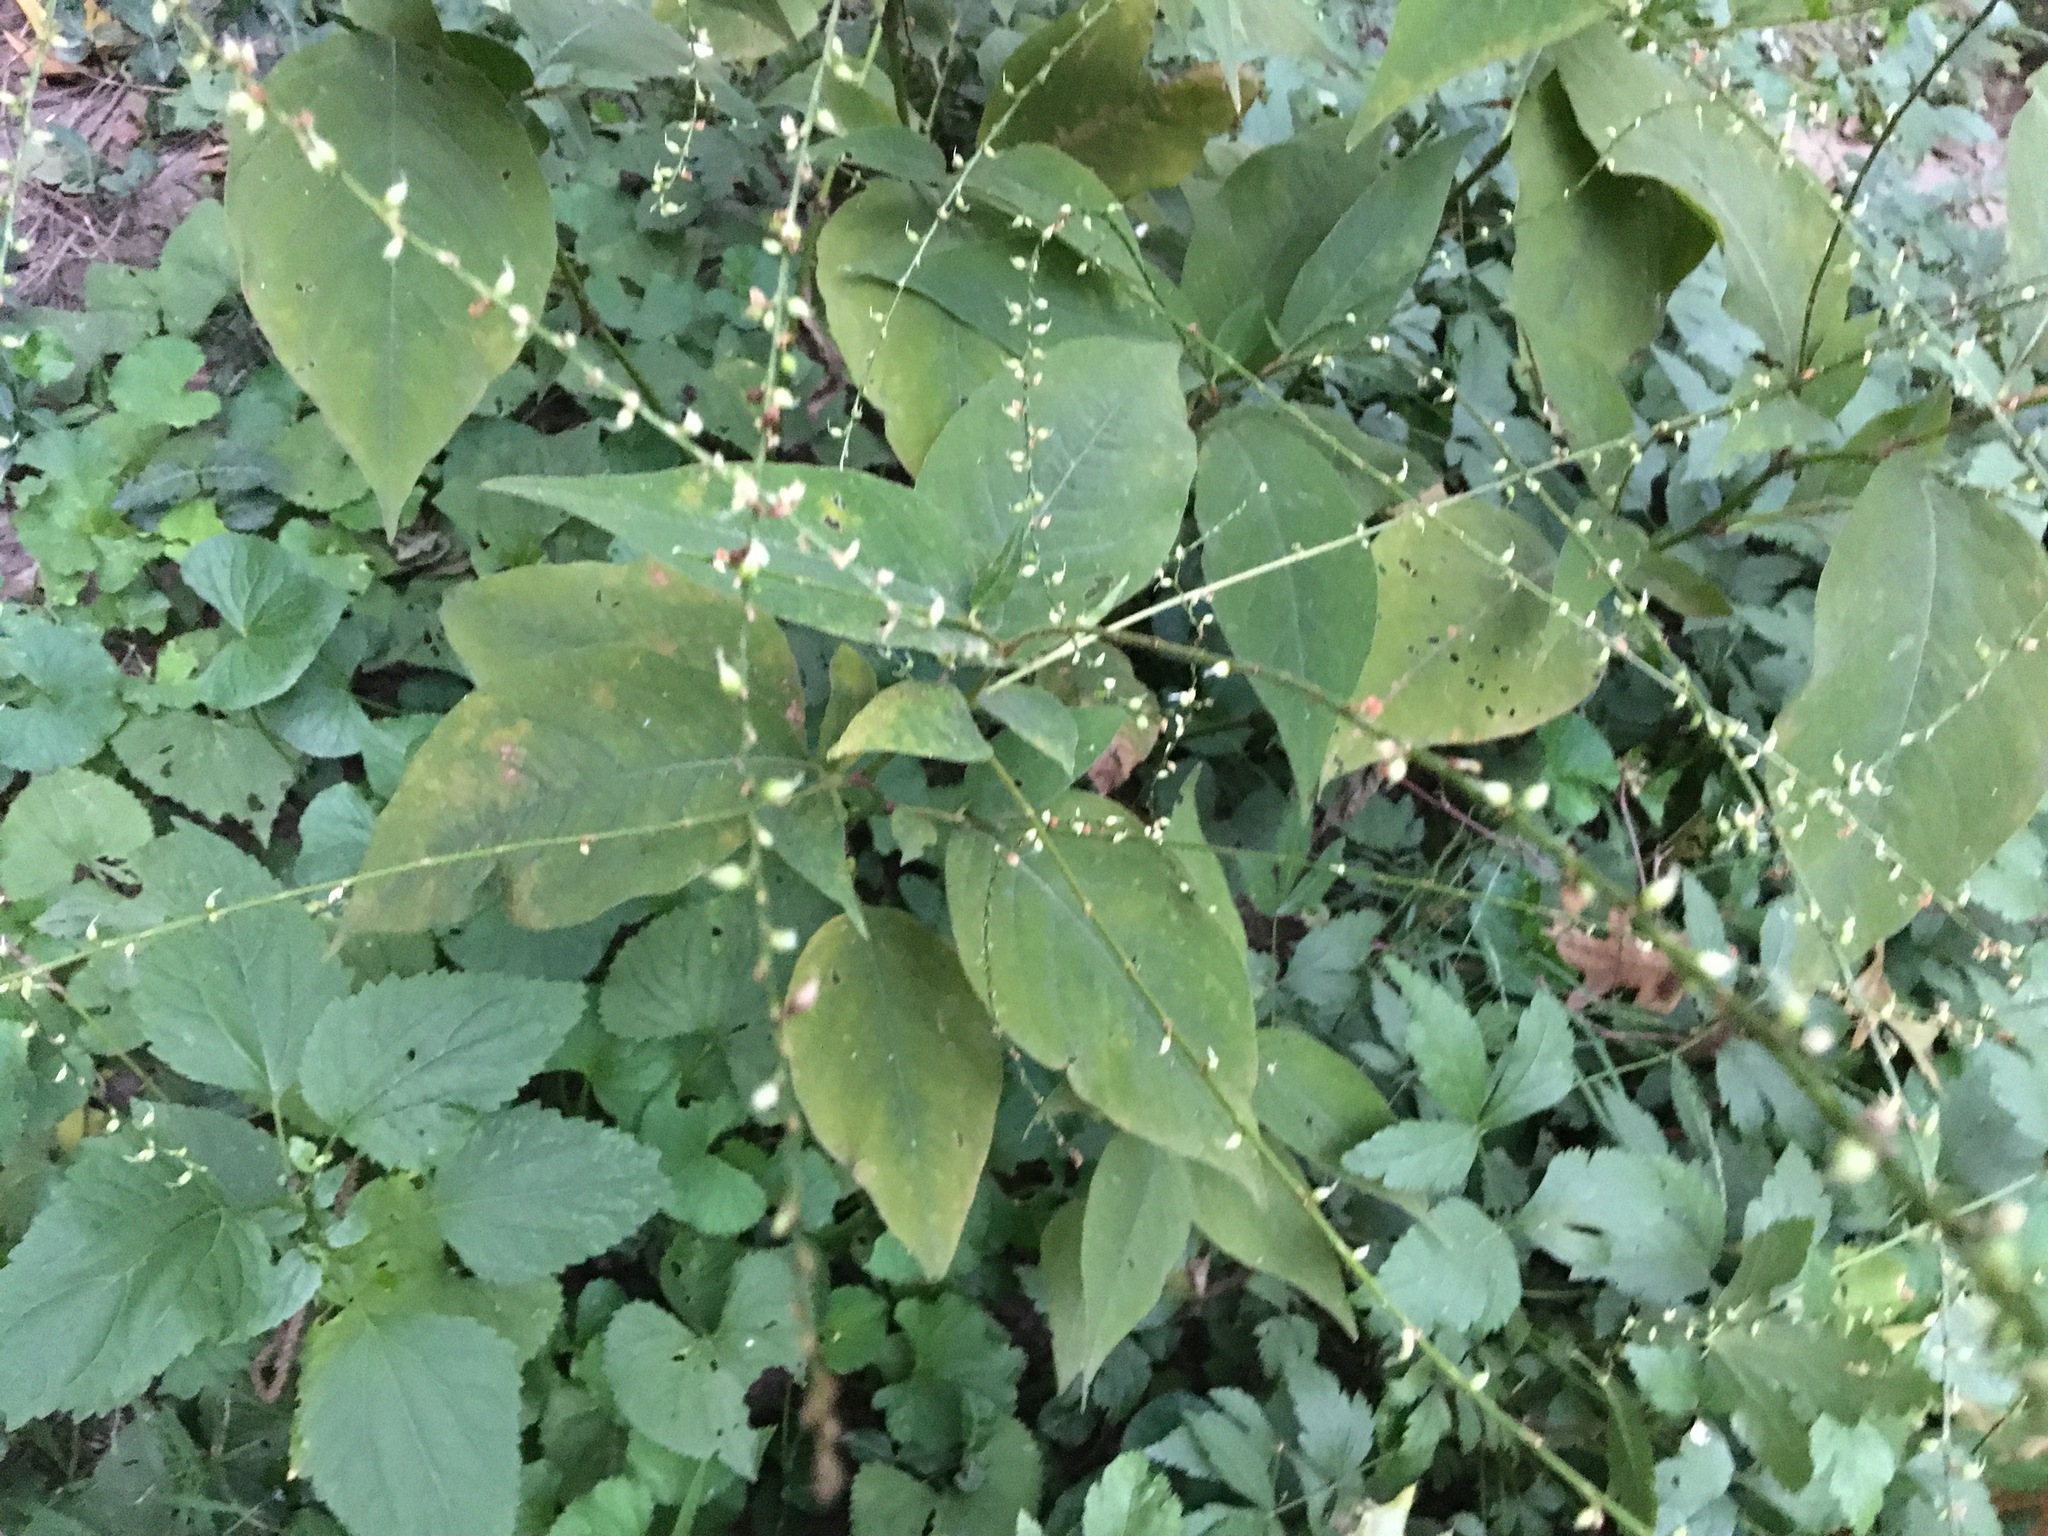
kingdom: Plantae
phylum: Tracheophyta
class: Magnoliopsida
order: Caryophyllales
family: Polygonaceae
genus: Persicaria
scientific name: Persicaria virginiana
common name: Jumpseed
